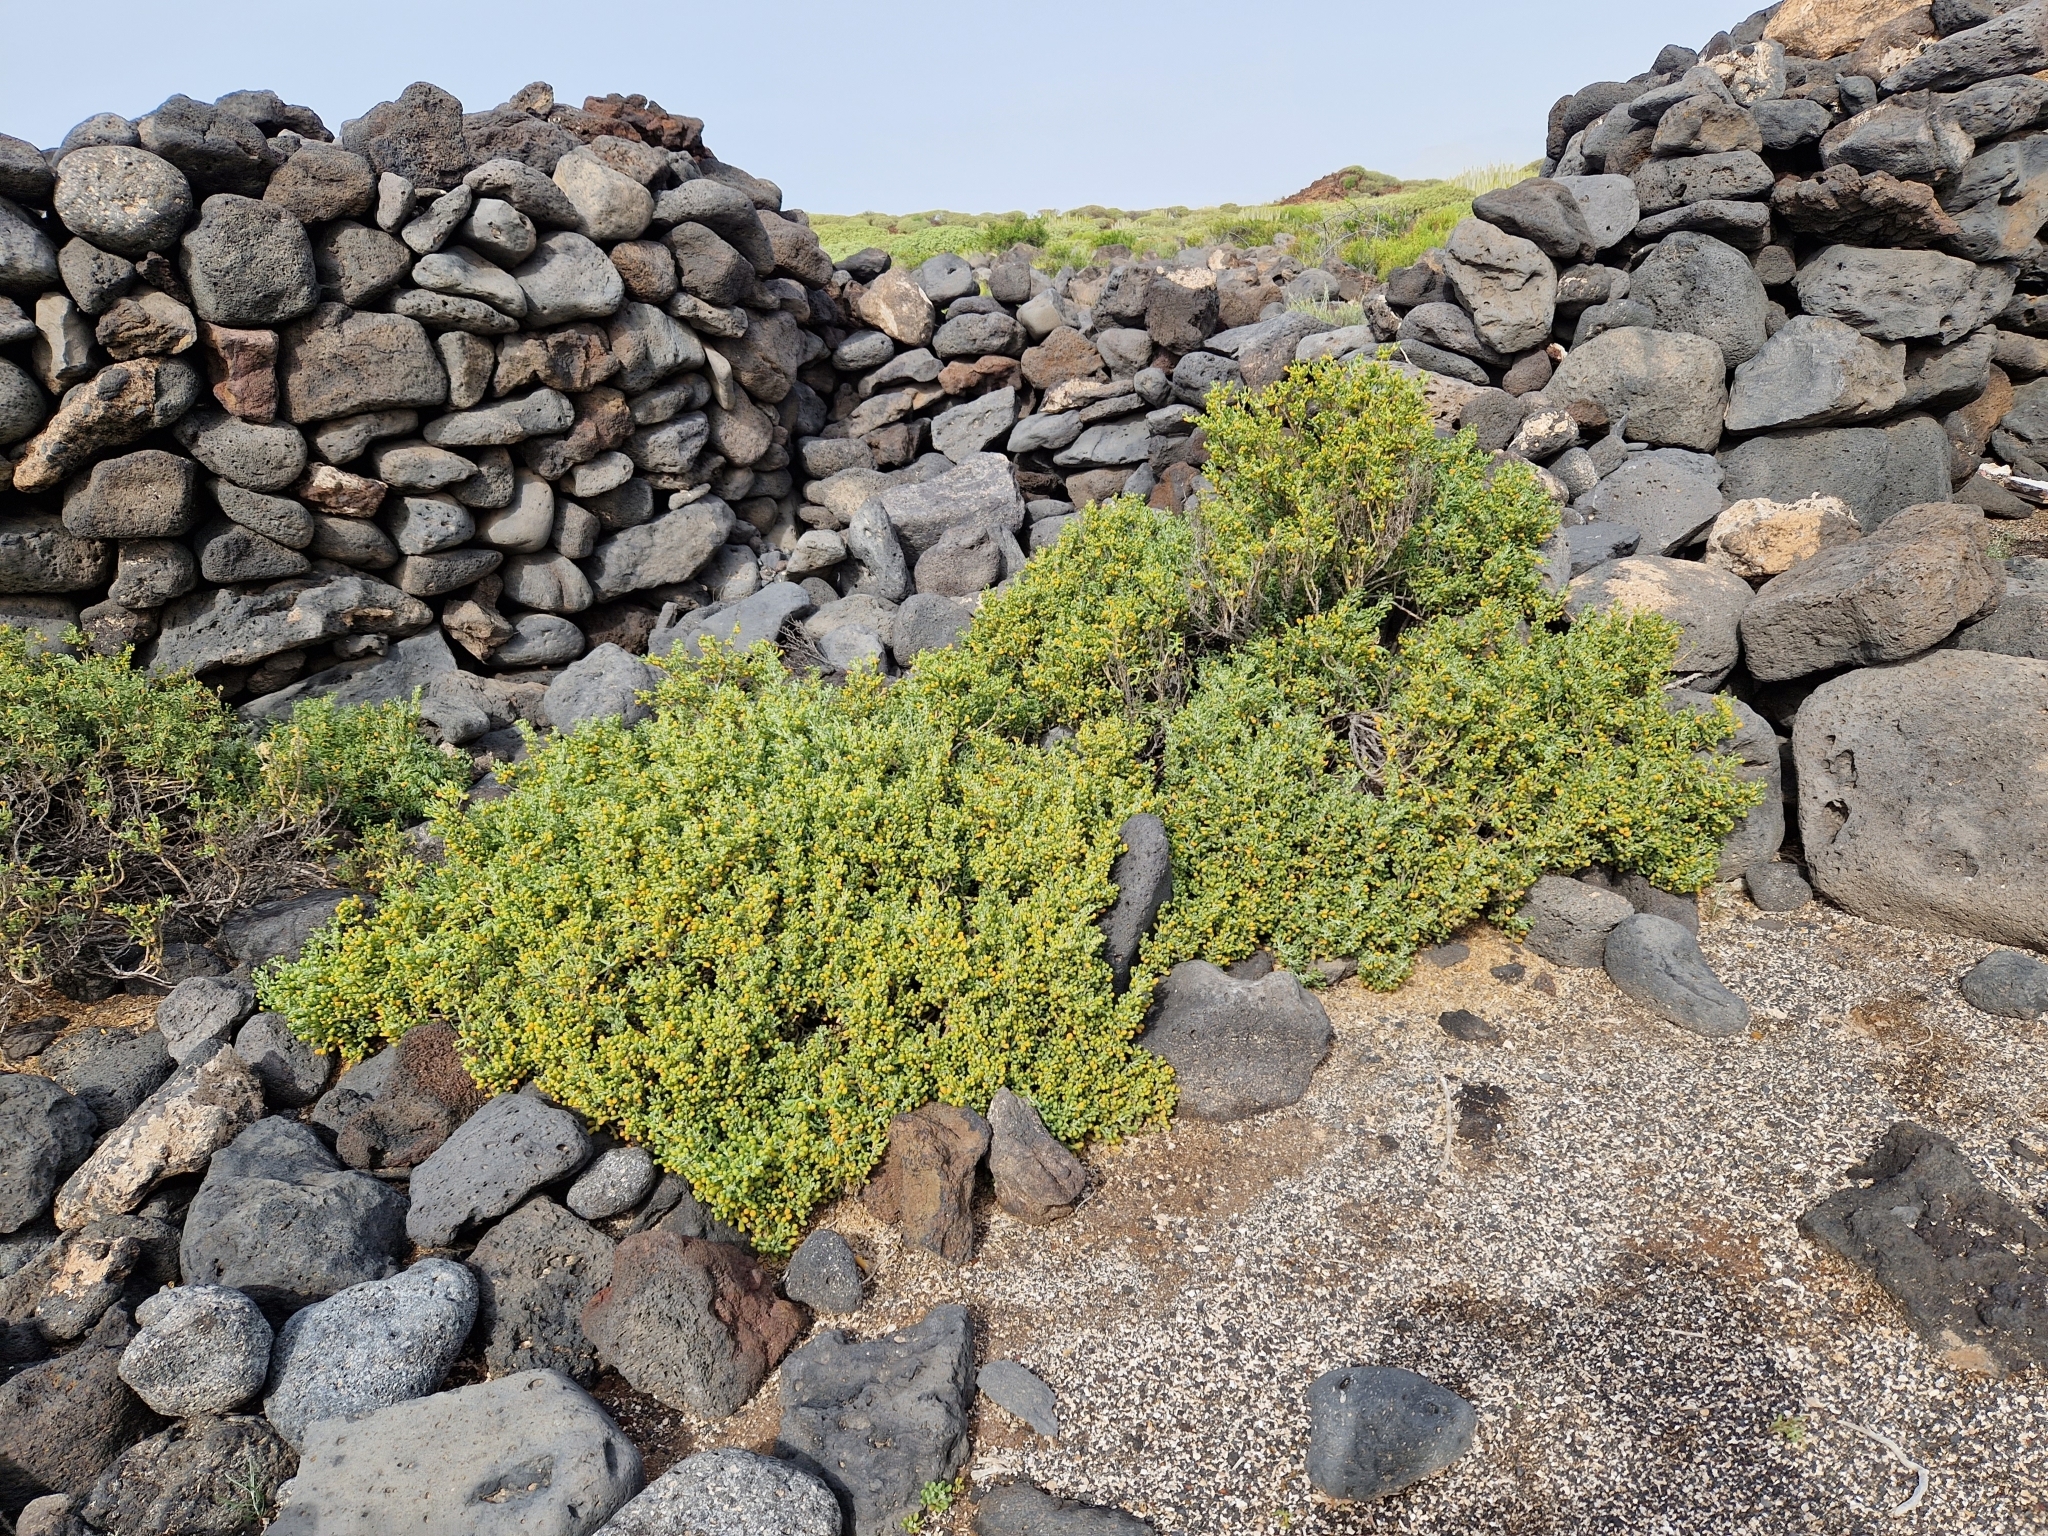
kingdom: Plantae
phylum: Tracheophyta
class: Magnoliopsida
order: Zygophyllales
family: Zygophyllaceae
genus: Tetraena
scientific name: Tetraena fontanesii
